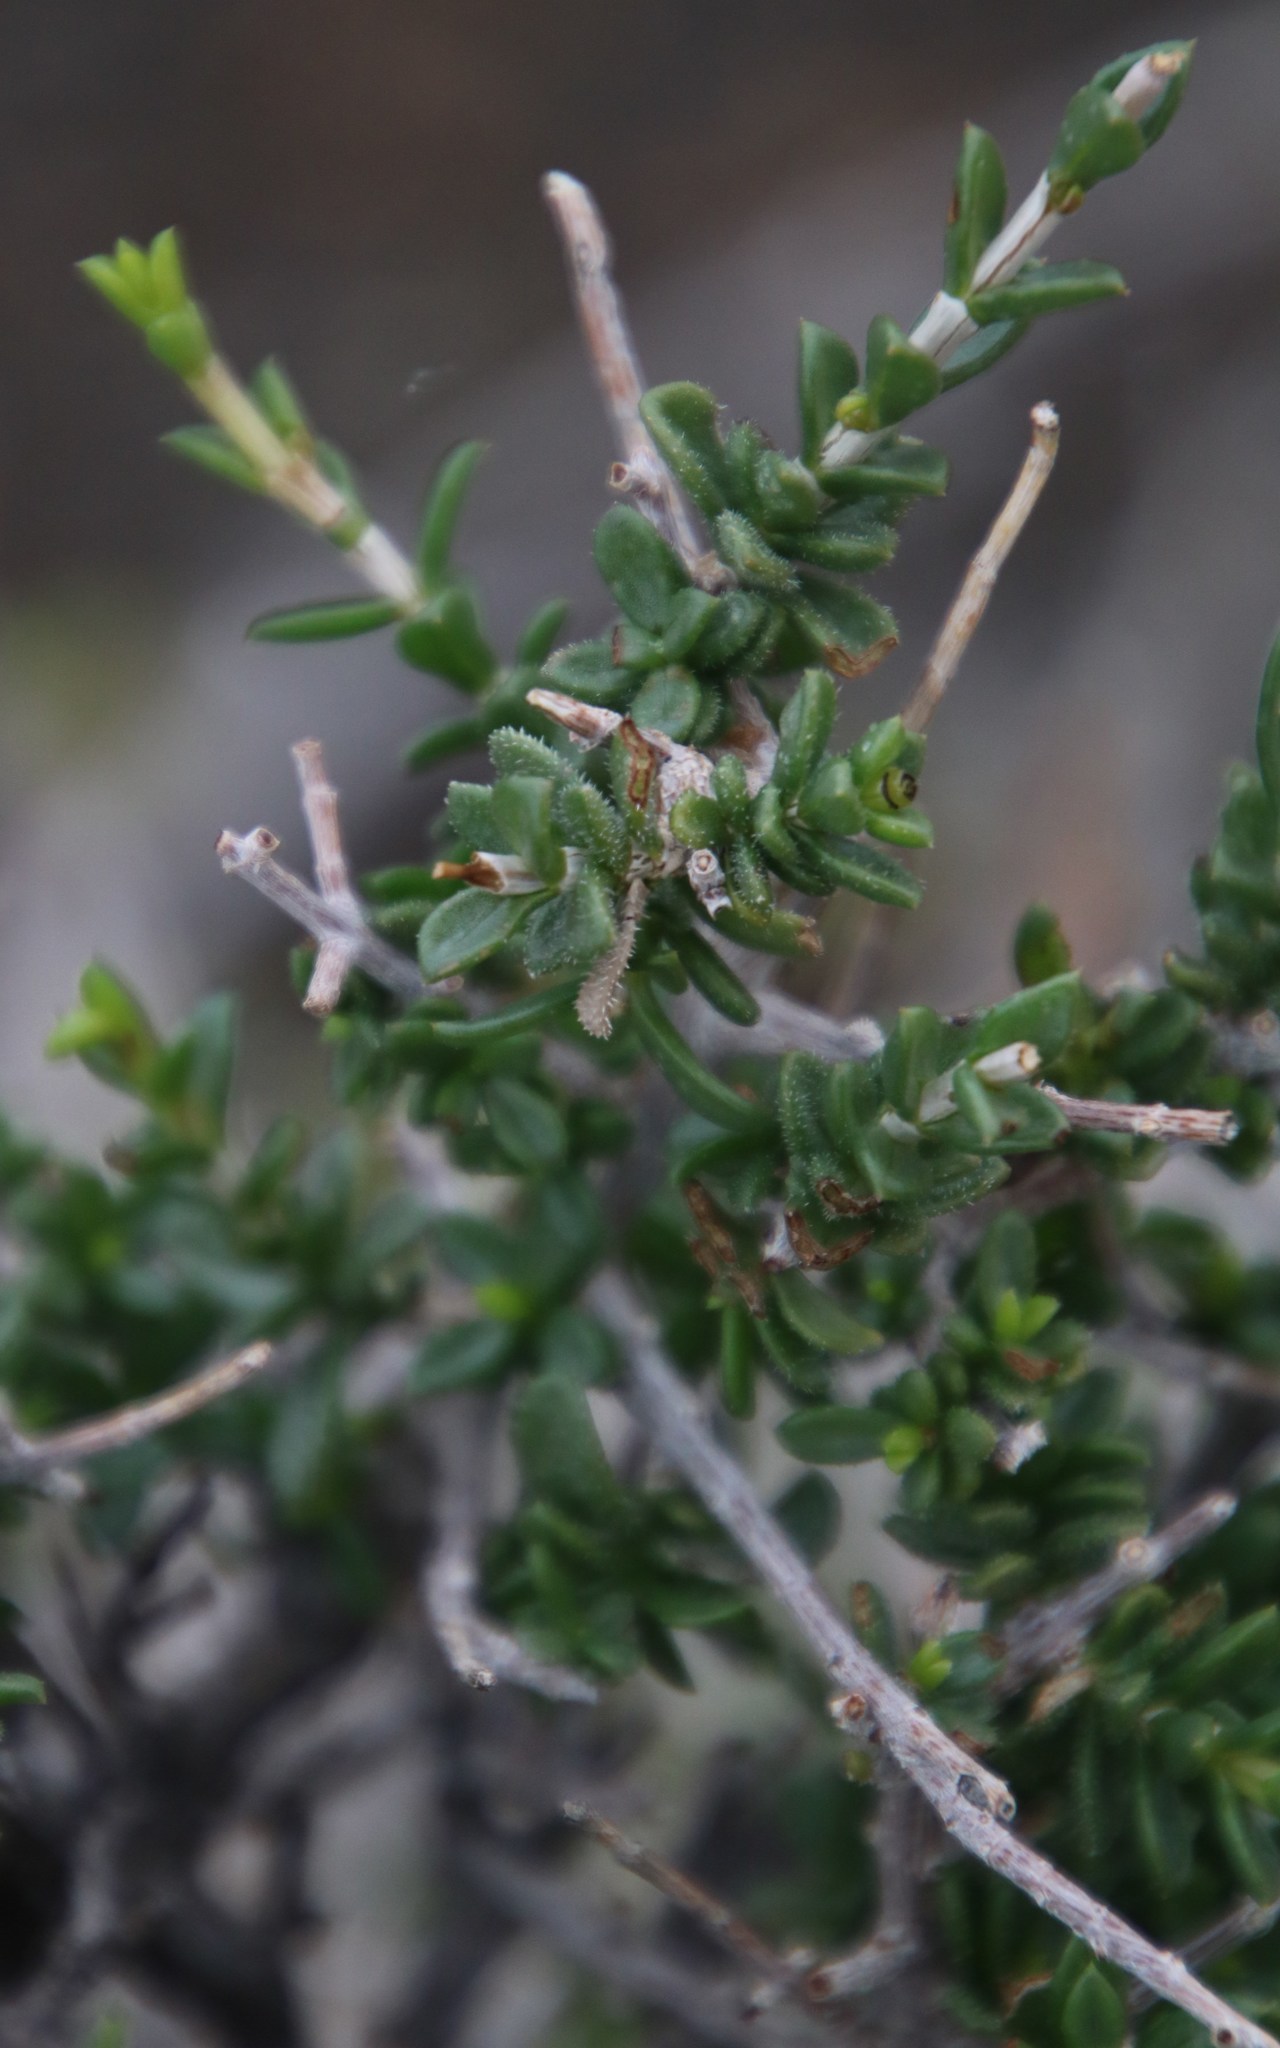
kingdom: Plantae
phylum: Tracheophyta
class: Magnoliopsida
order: Asterales
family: Asteraceae
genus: Pteronia
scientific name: Pteronia viscosa
